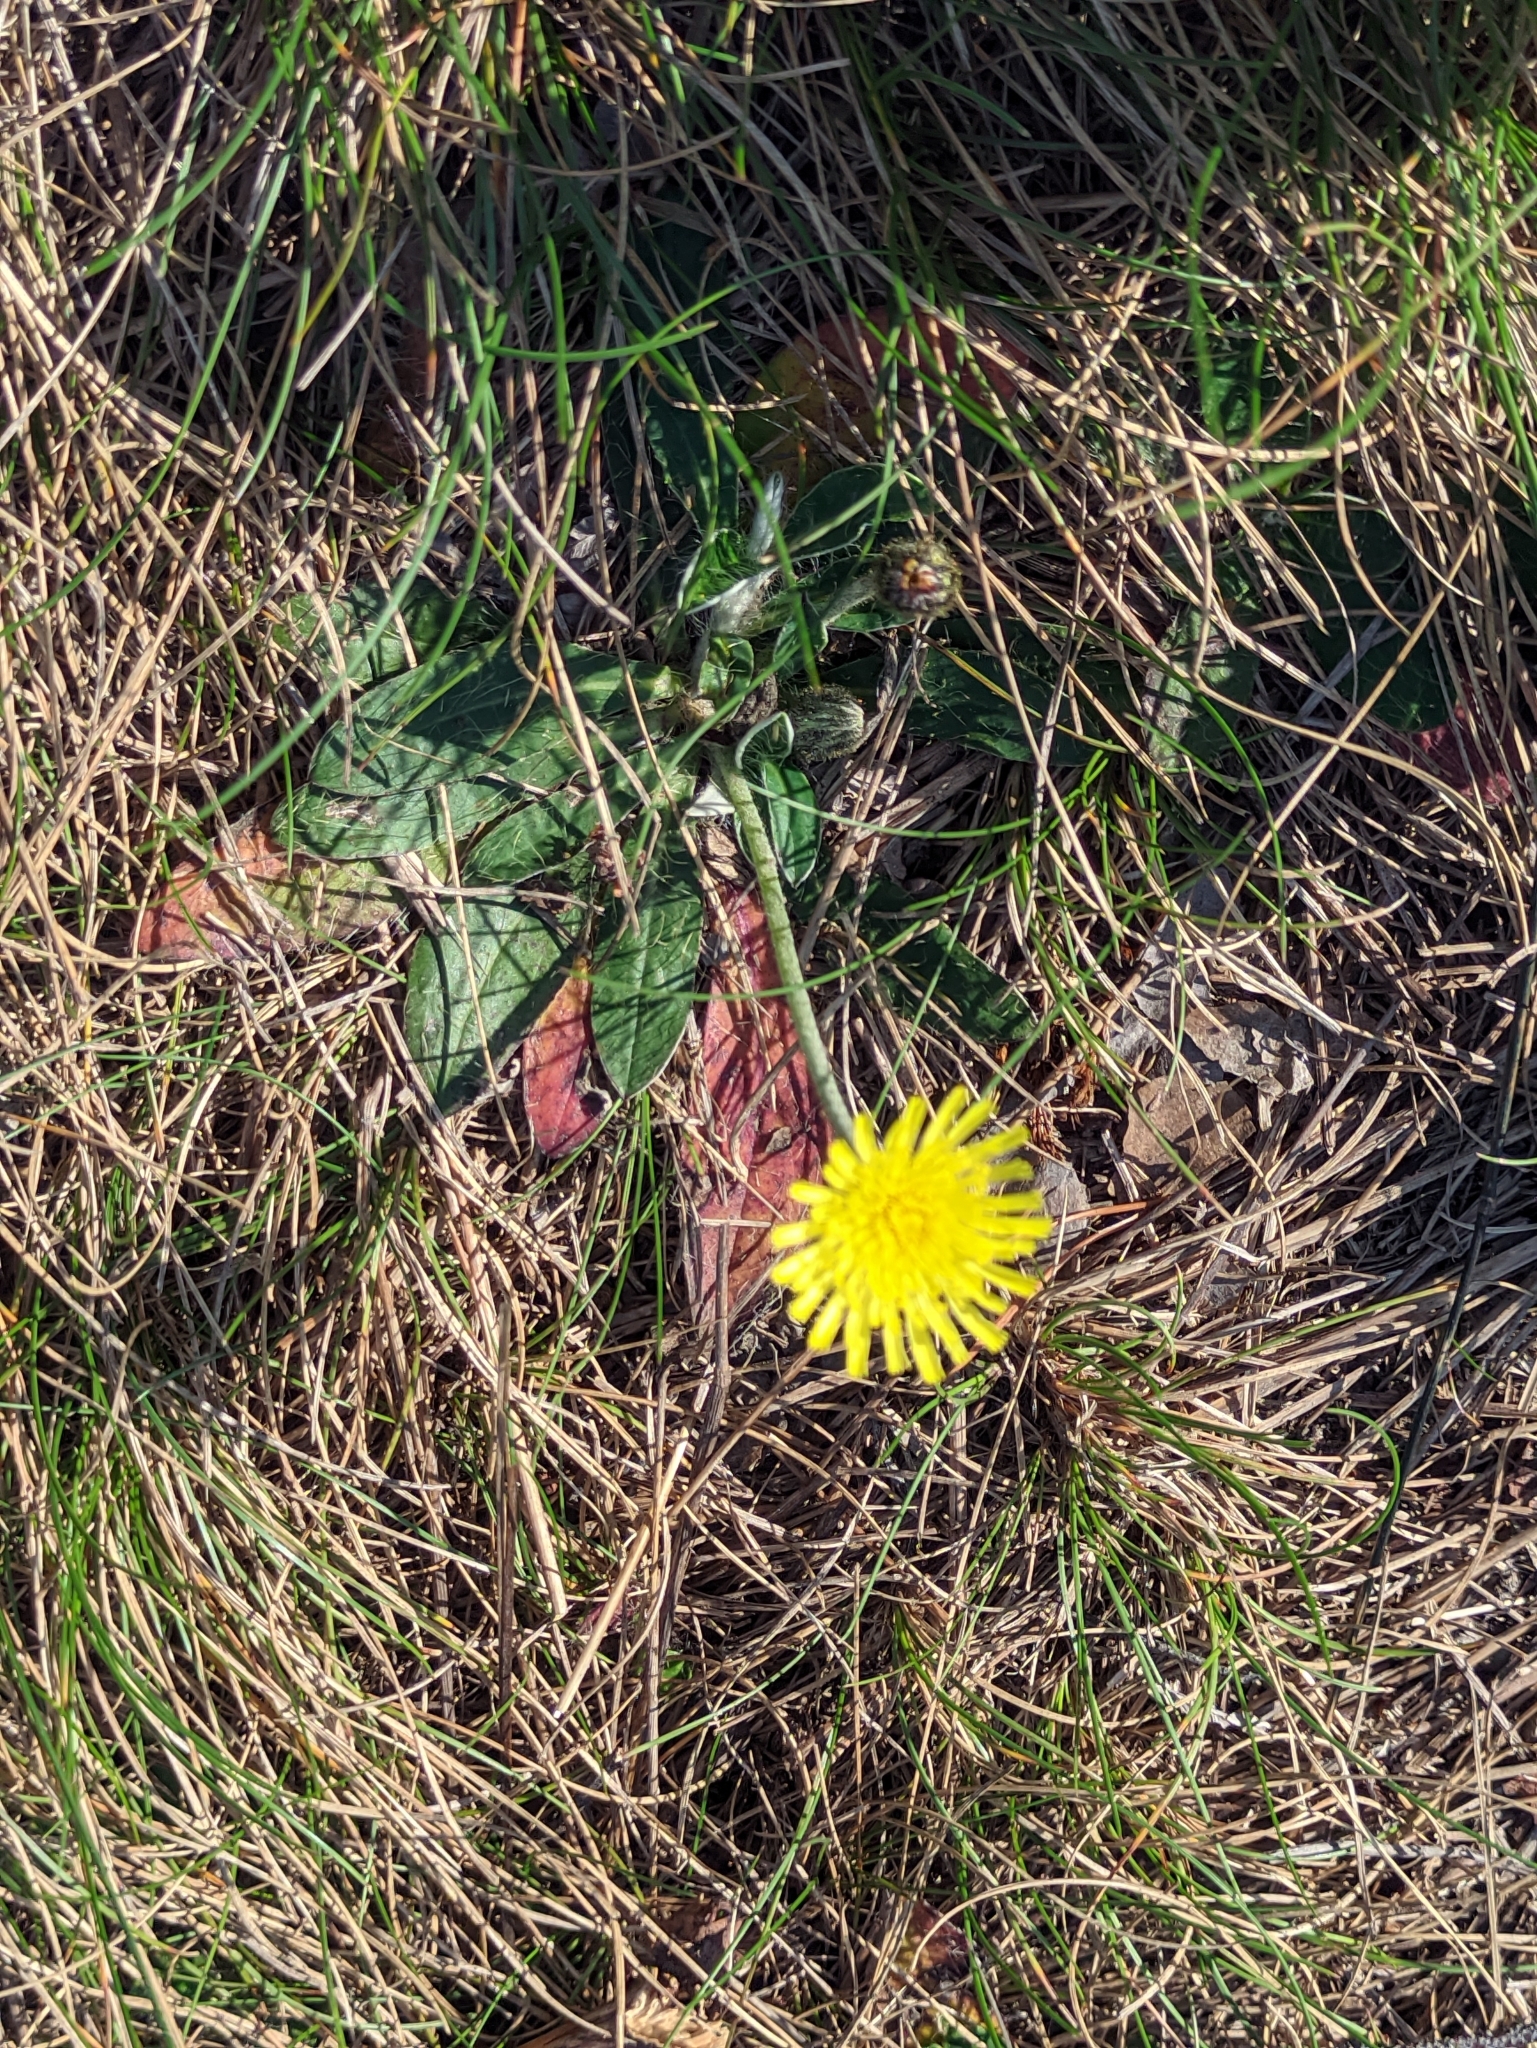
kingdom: Plantae
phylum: Tracheophyta
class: Magnoliopsida
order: Asterales
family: Asteraceae
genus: Pilosella
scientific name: Pilosella officinarum
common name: Mouse-ear hawkweed
